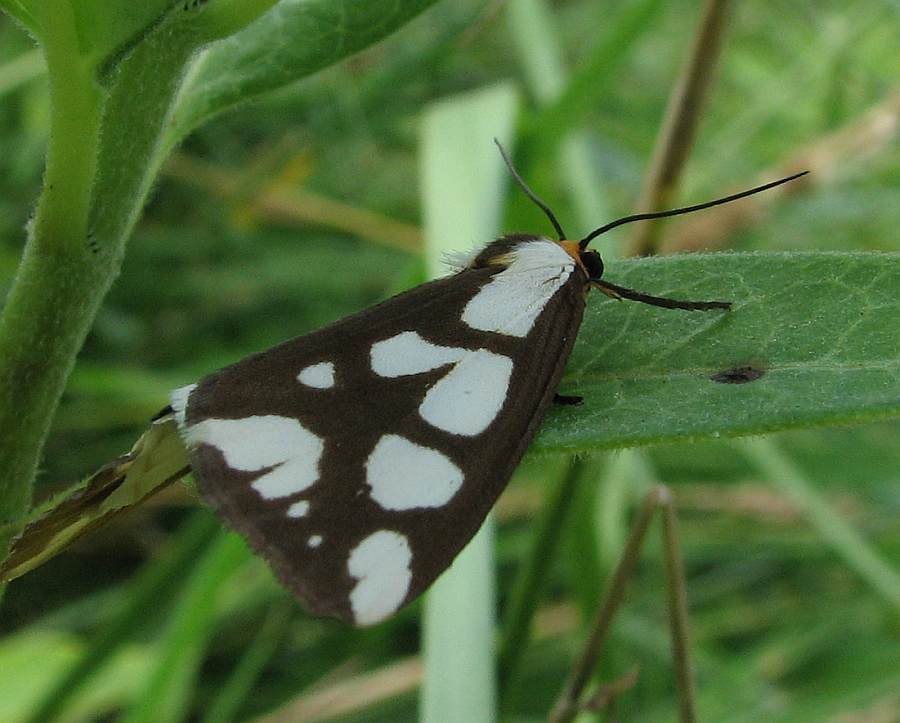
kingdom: Animalia
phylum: Arthropoda
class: Insecta
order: Lepidoptera
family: Erebidae
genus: Haploa
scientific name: Haploa confusa
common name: Confused haploa moth
